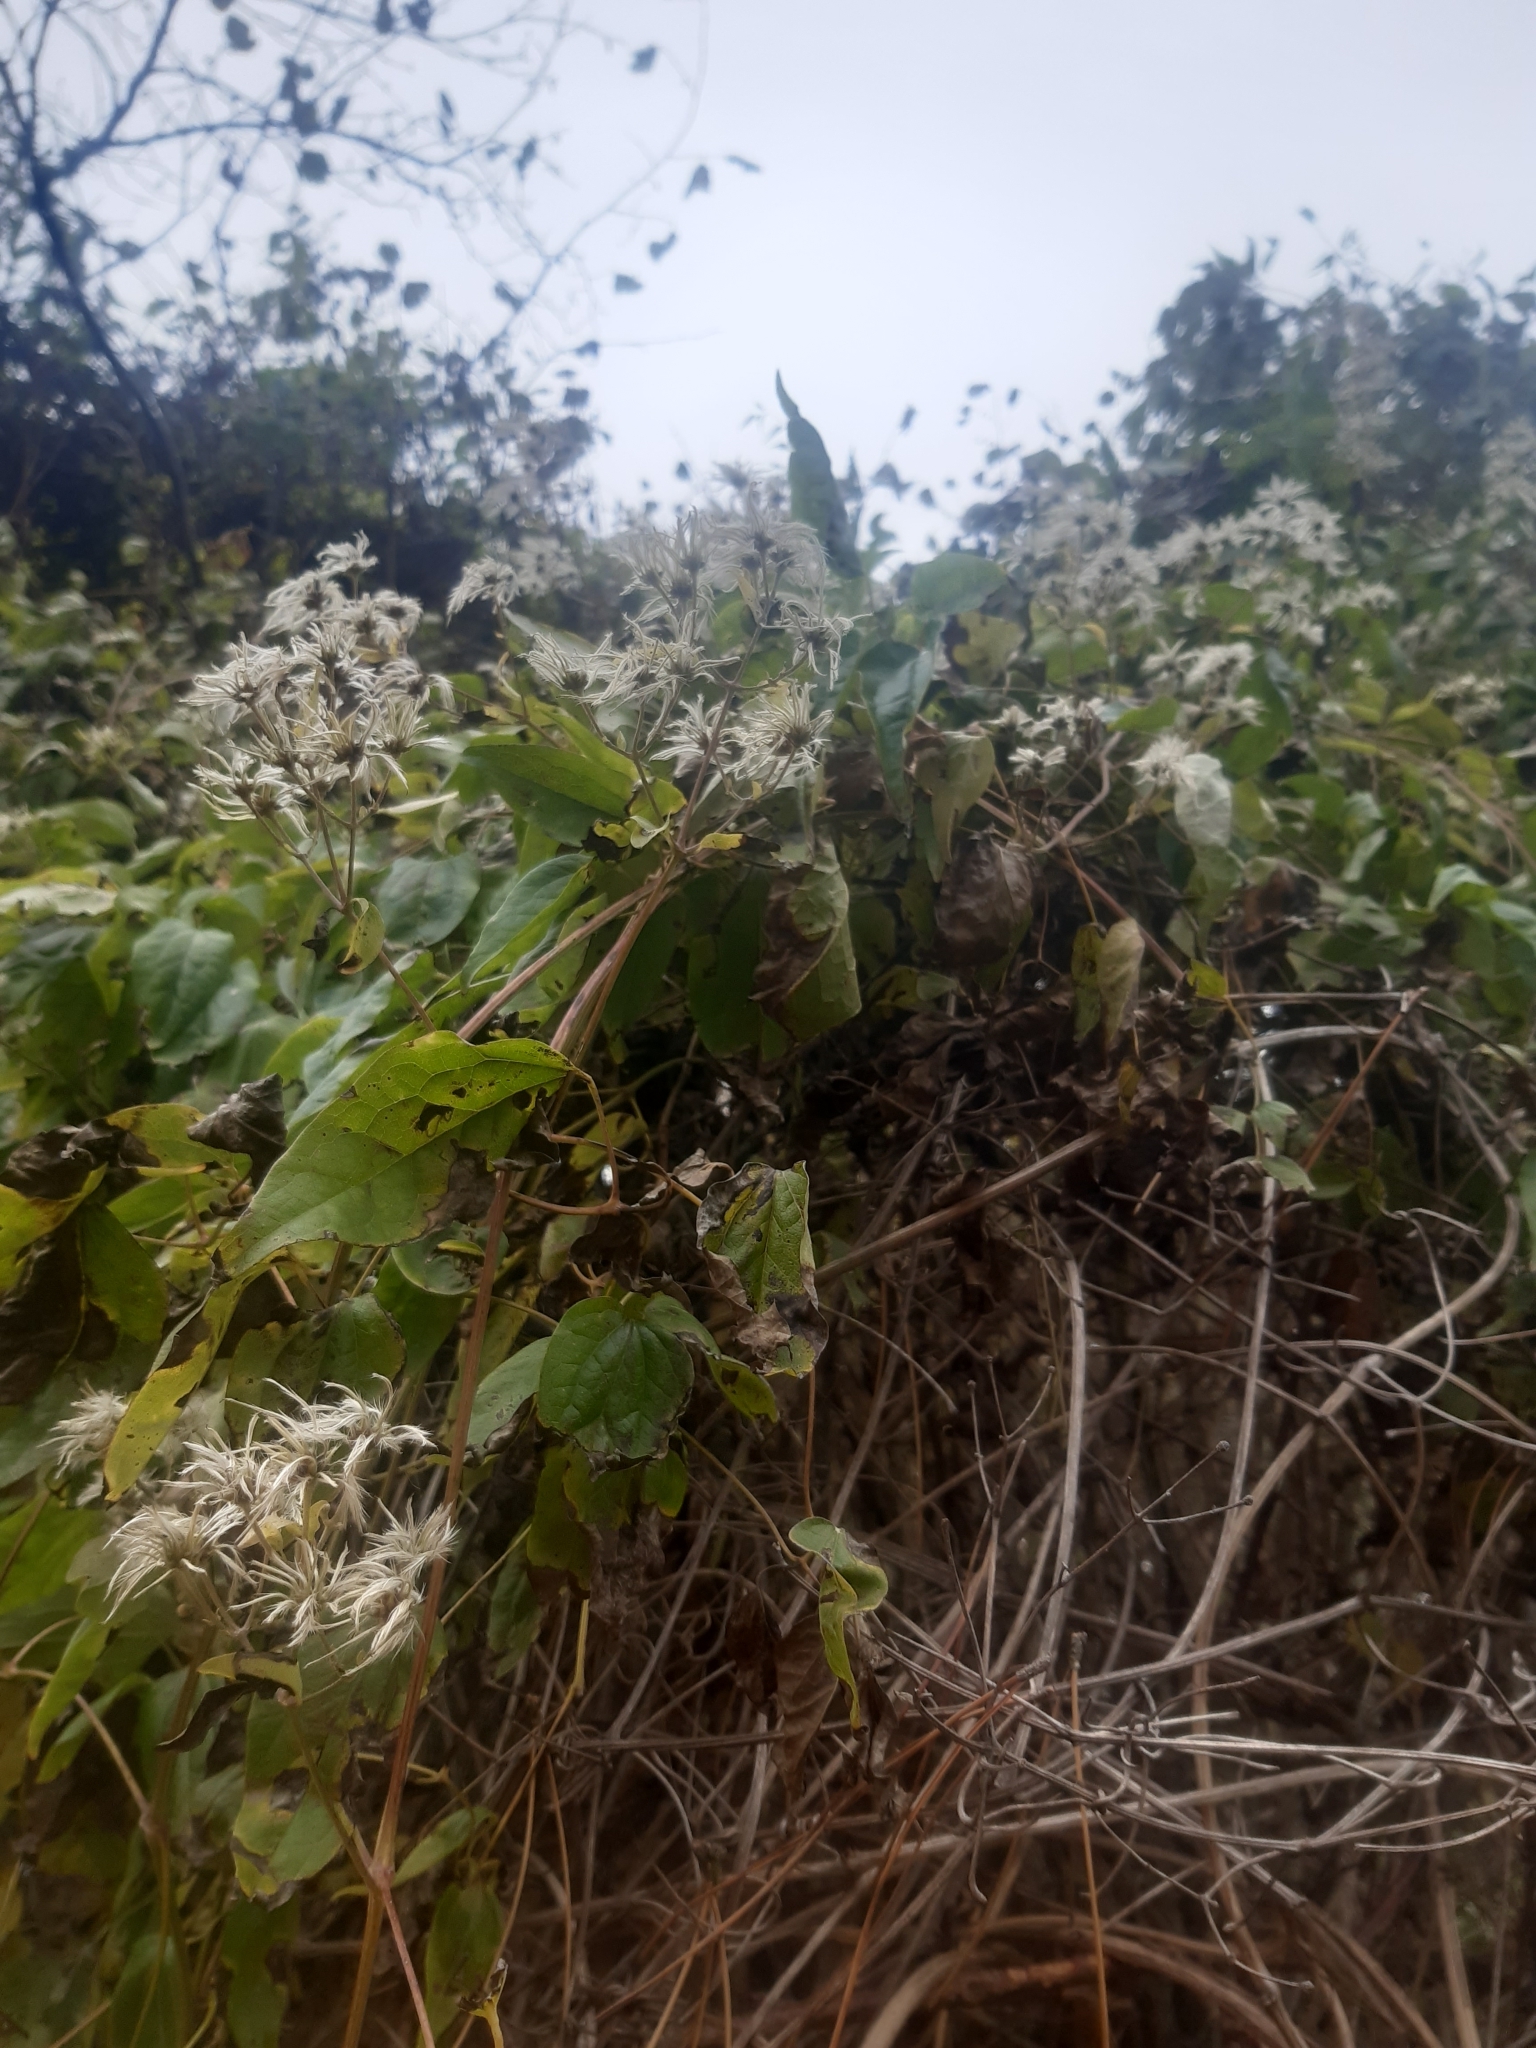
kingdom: Plantae
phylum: Tracheophyta
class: Magnoliopsida
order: Ranunculales
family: Ranunculaceae
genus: Clematis
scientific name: Clematis vitalba
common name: Evergreen clematis
